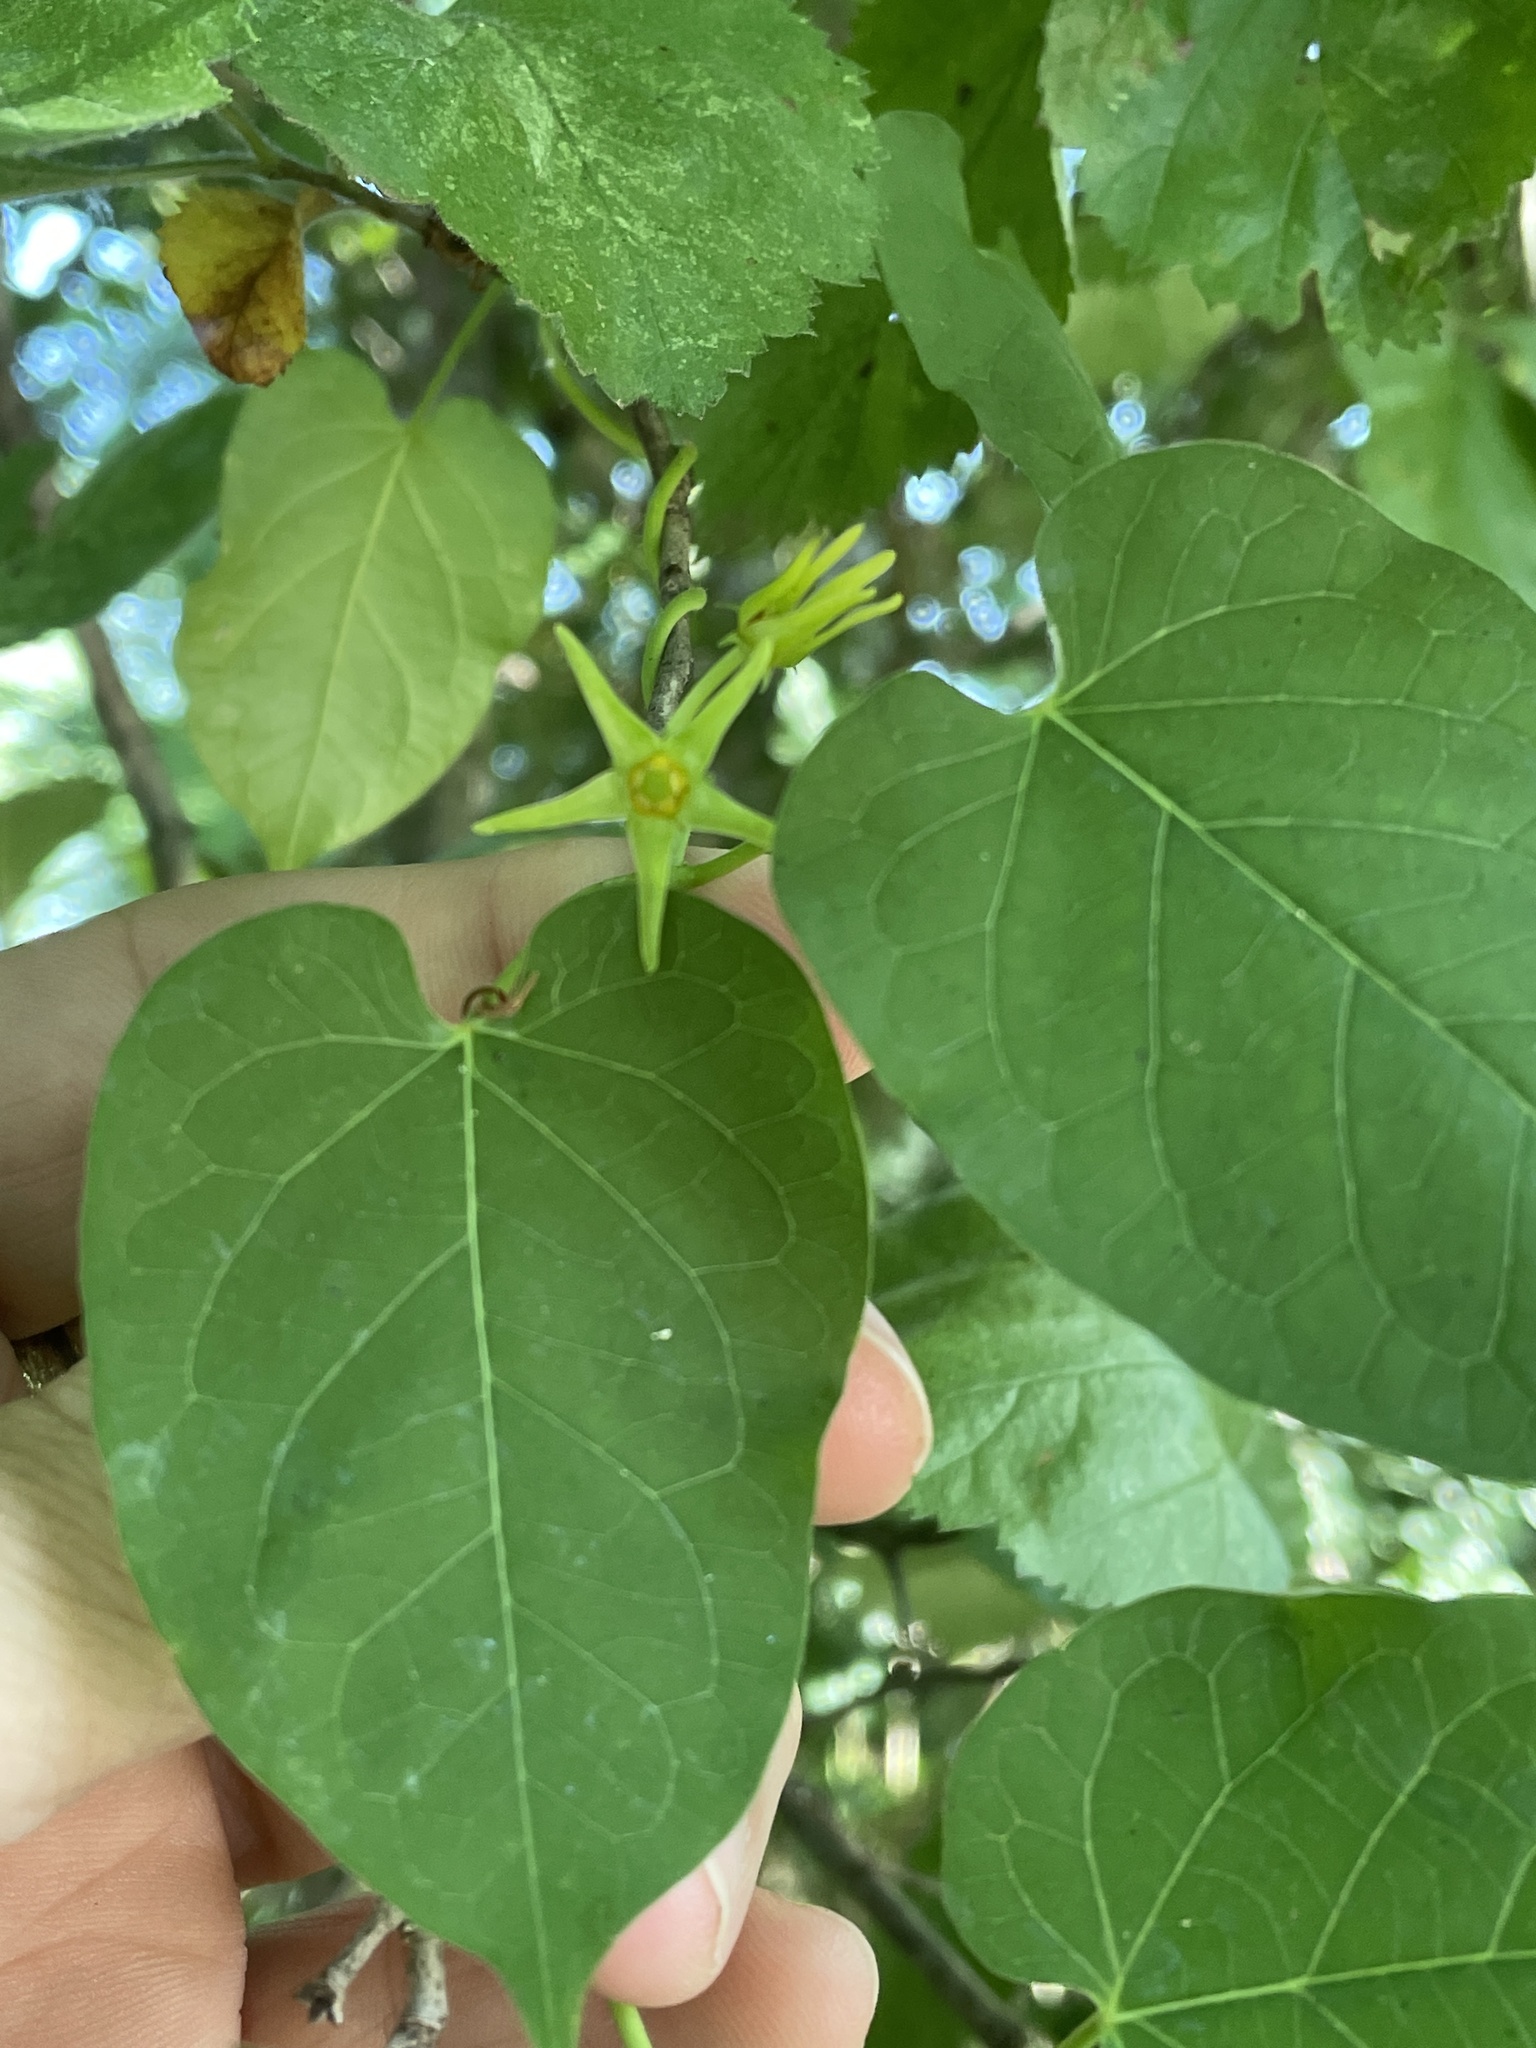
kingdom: Plantae
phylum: Tracheophyta
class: Magnoliopsida
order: Gentianales
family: Apocynaceae
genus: Gonolobus
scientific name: Gonolobus suberosus
